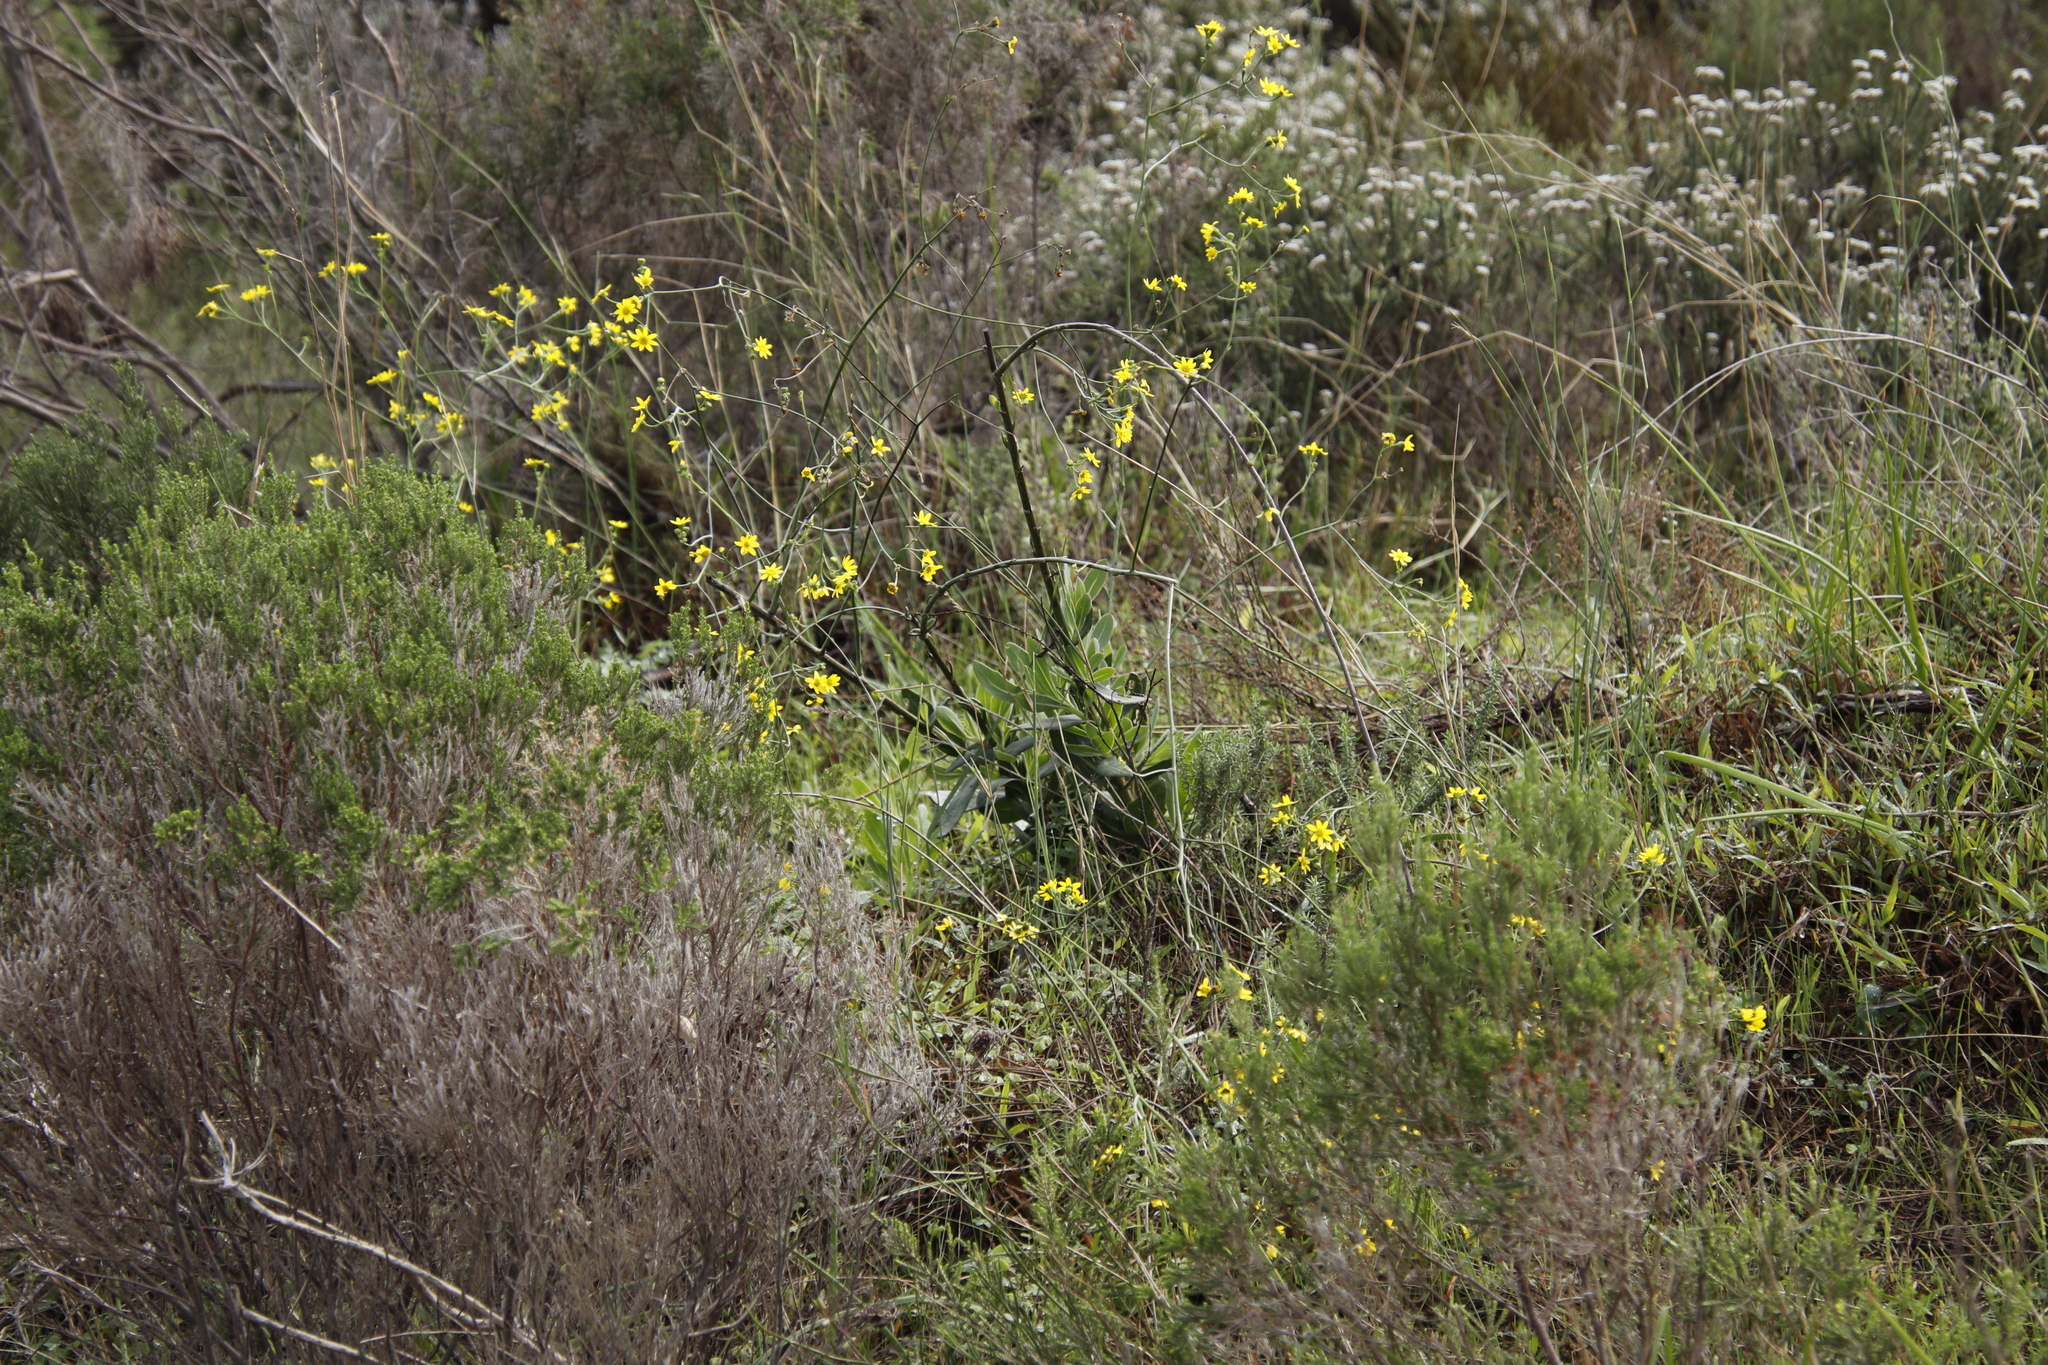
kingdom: Plantae
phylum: Tracheophyta
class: Magnoliopsida
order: Asterales
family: Asteraceae
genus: Othonna
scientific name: Othonna quinquedentata
